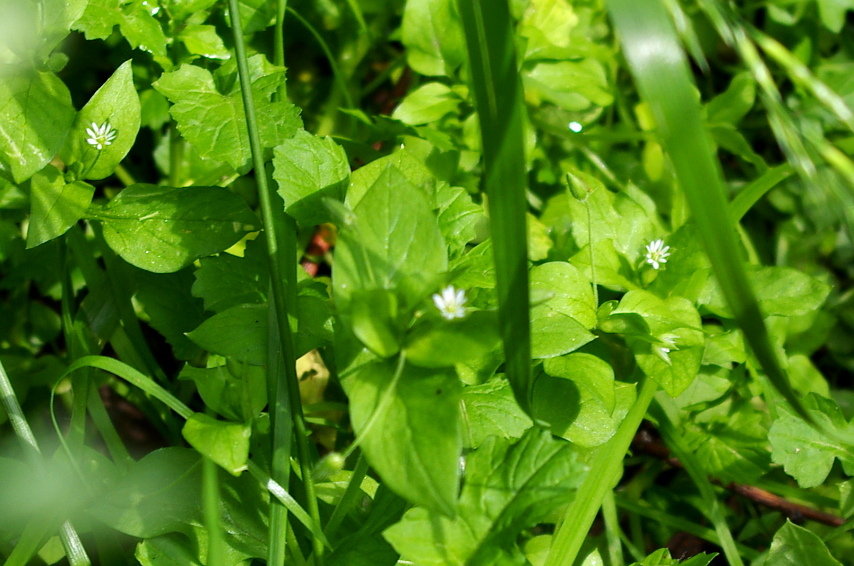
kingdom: Plantae
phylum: Tracheophyta
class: Magnoliopsida
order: Caryophyllales
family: Caryophyllaceae
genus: Stellaria
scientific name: Stellaria media
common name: Common chickweed
